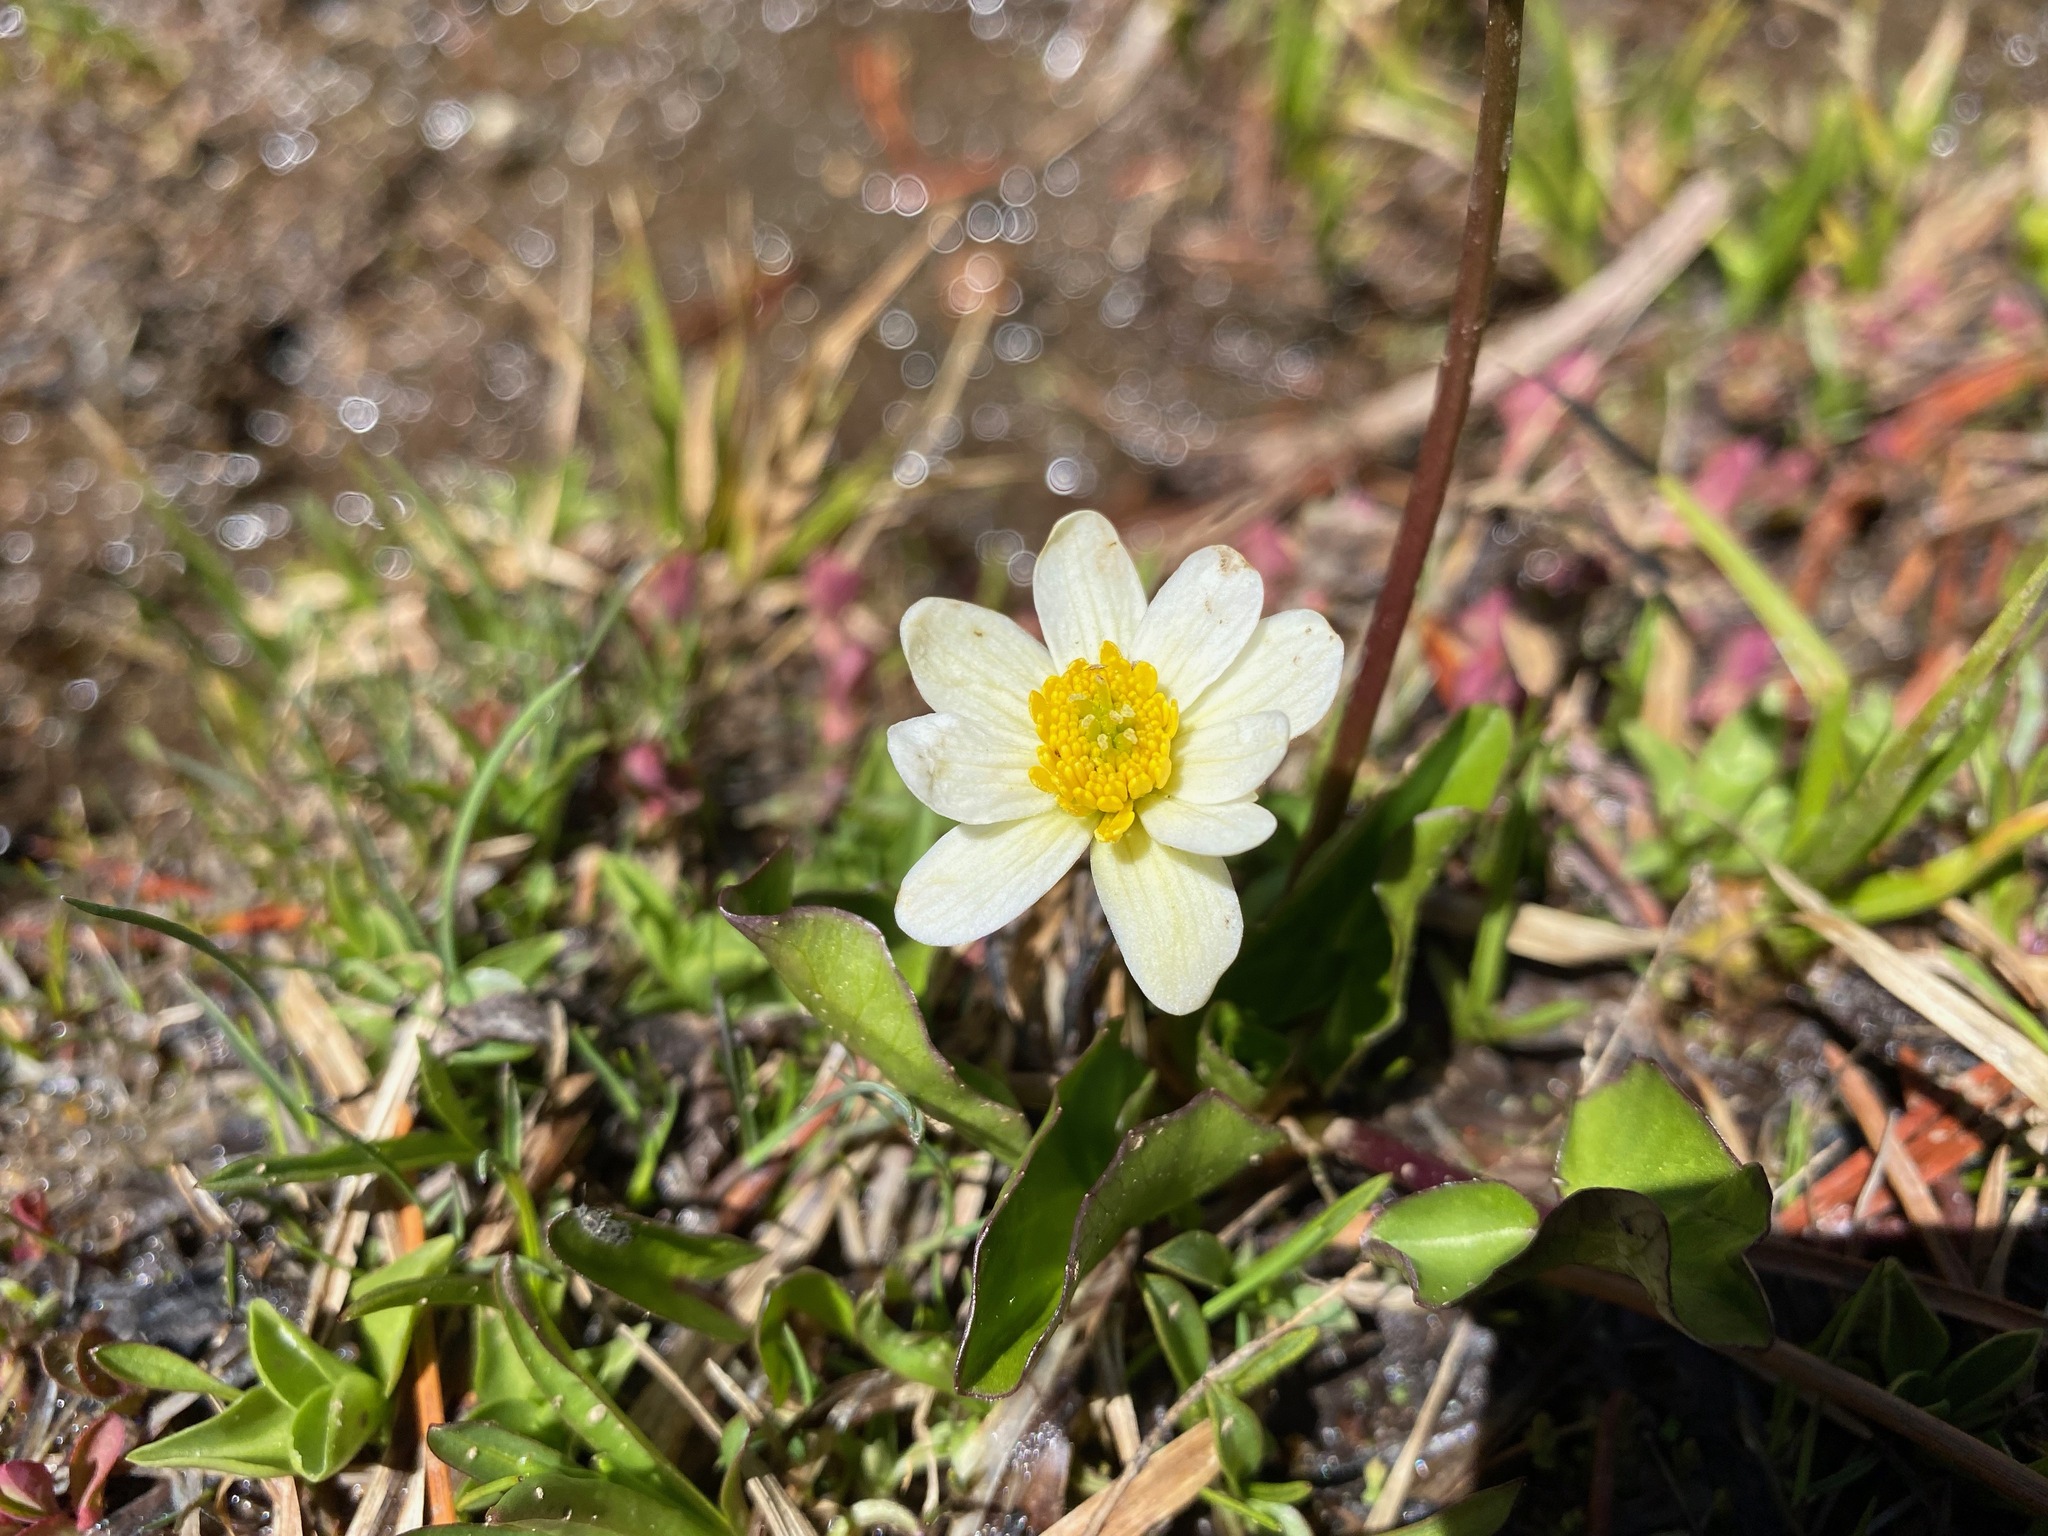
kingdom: Plantae
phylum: Tracheophyta
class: Magnoliopsida
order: Ranunculales
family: Ranunculaceae
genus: Caltha
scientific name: Caltha leptosepala
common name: Elkslip
